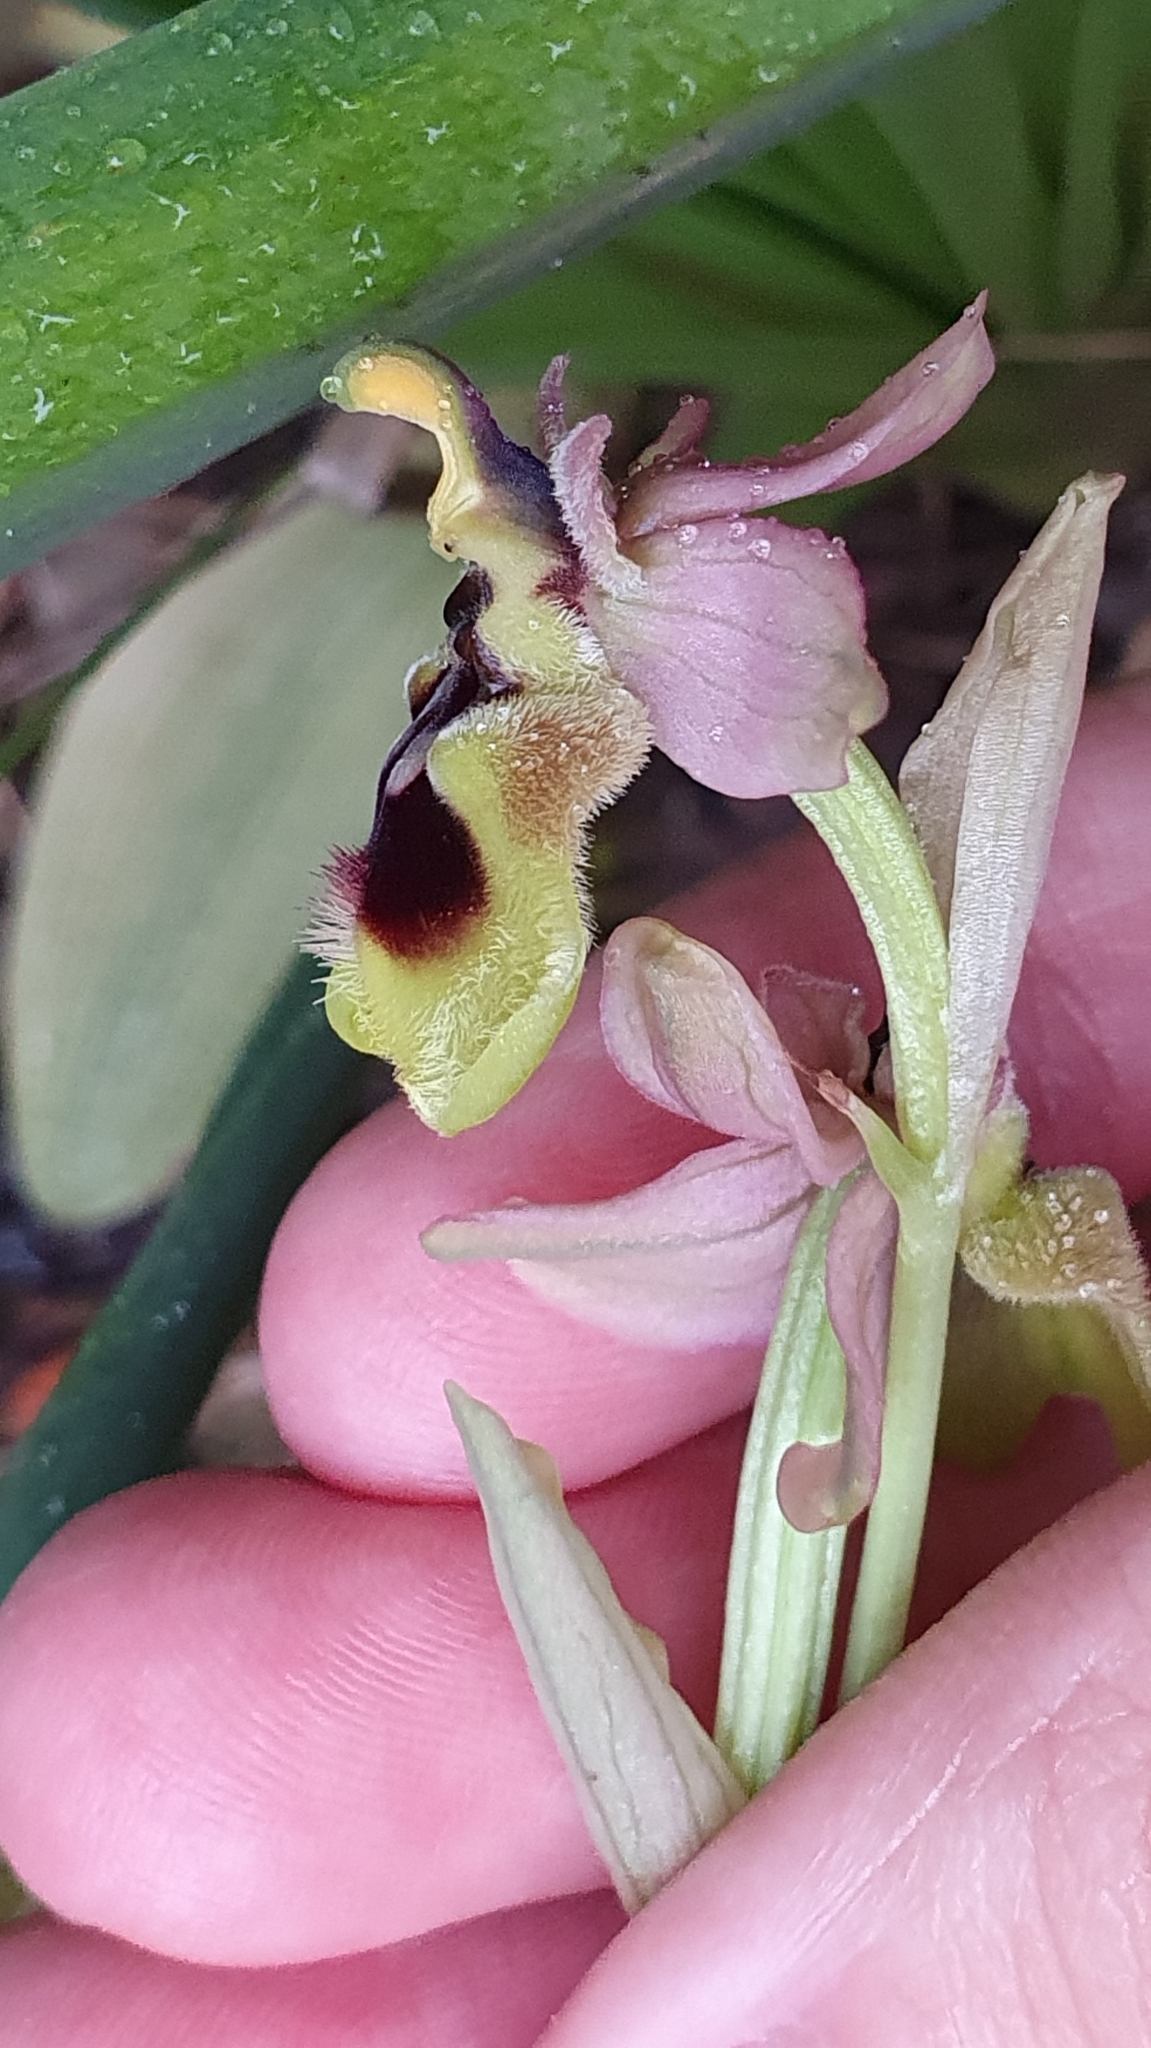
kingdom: Plantae
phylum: Tracheophyta
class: Liliopsida
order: Asparagales
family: Orchidaceae
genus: Ophrys
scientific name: Ophrys tenthredinifera
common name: Sawfly orchid
